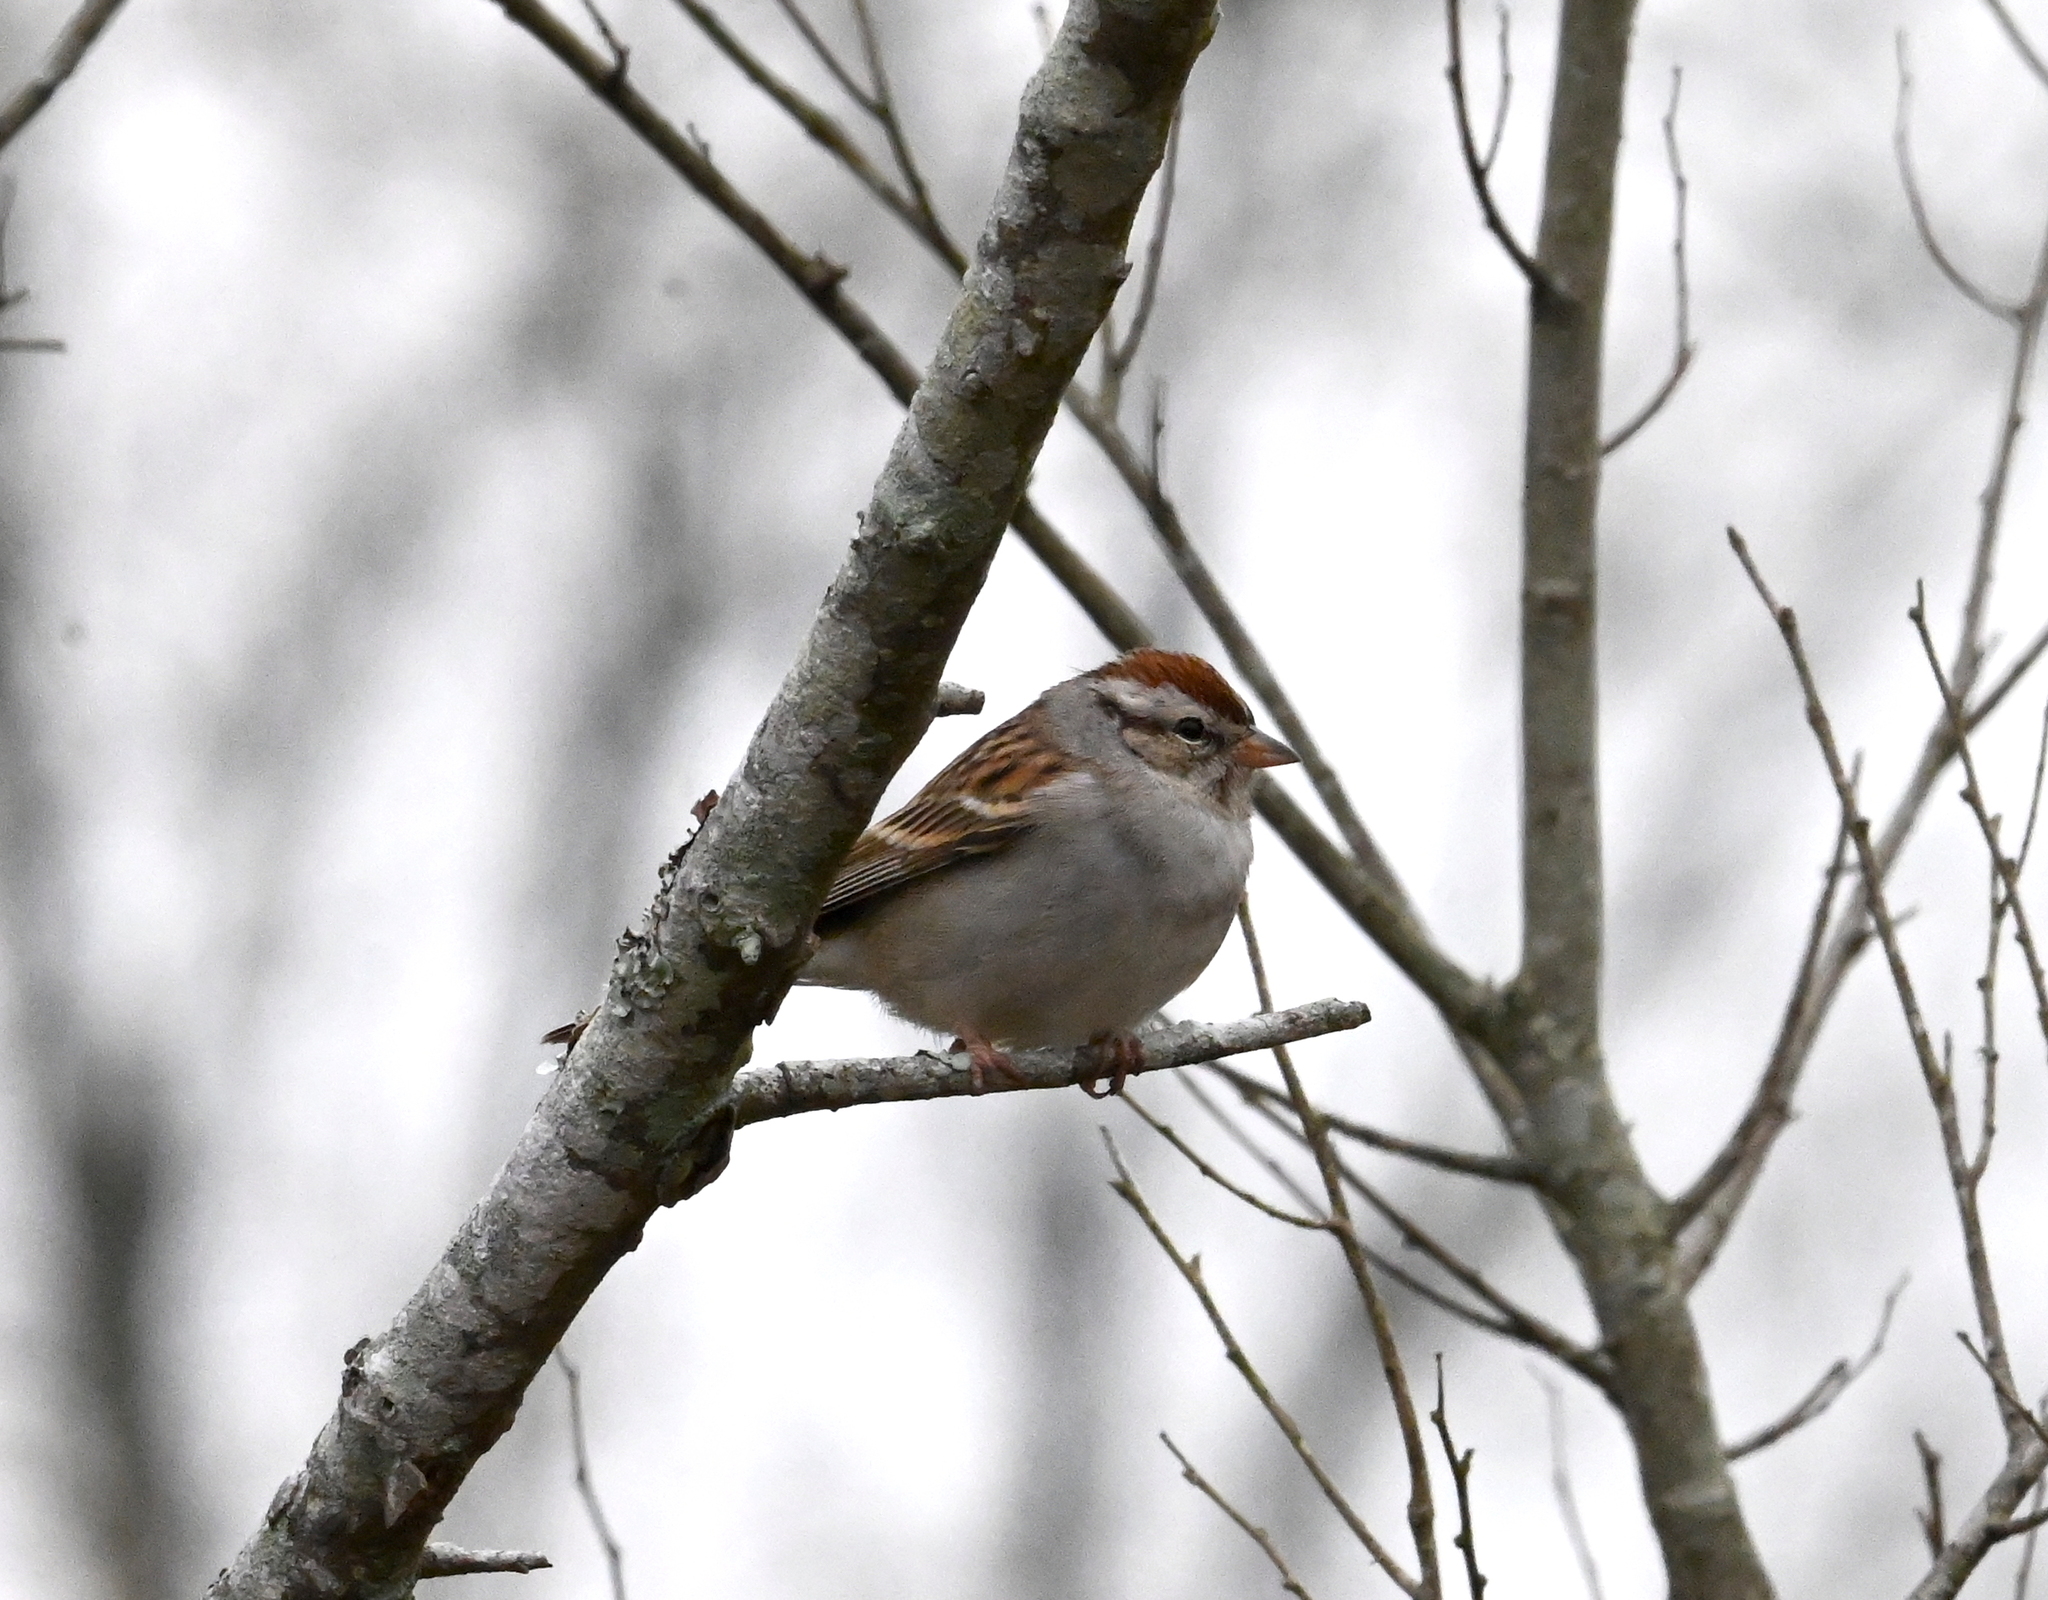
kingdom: Animalia
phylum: Chordata
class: Aves
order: Passeriformes
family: Passerellidae
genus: Spizella
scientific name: Spizella passerina
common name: Chipping sparrow
